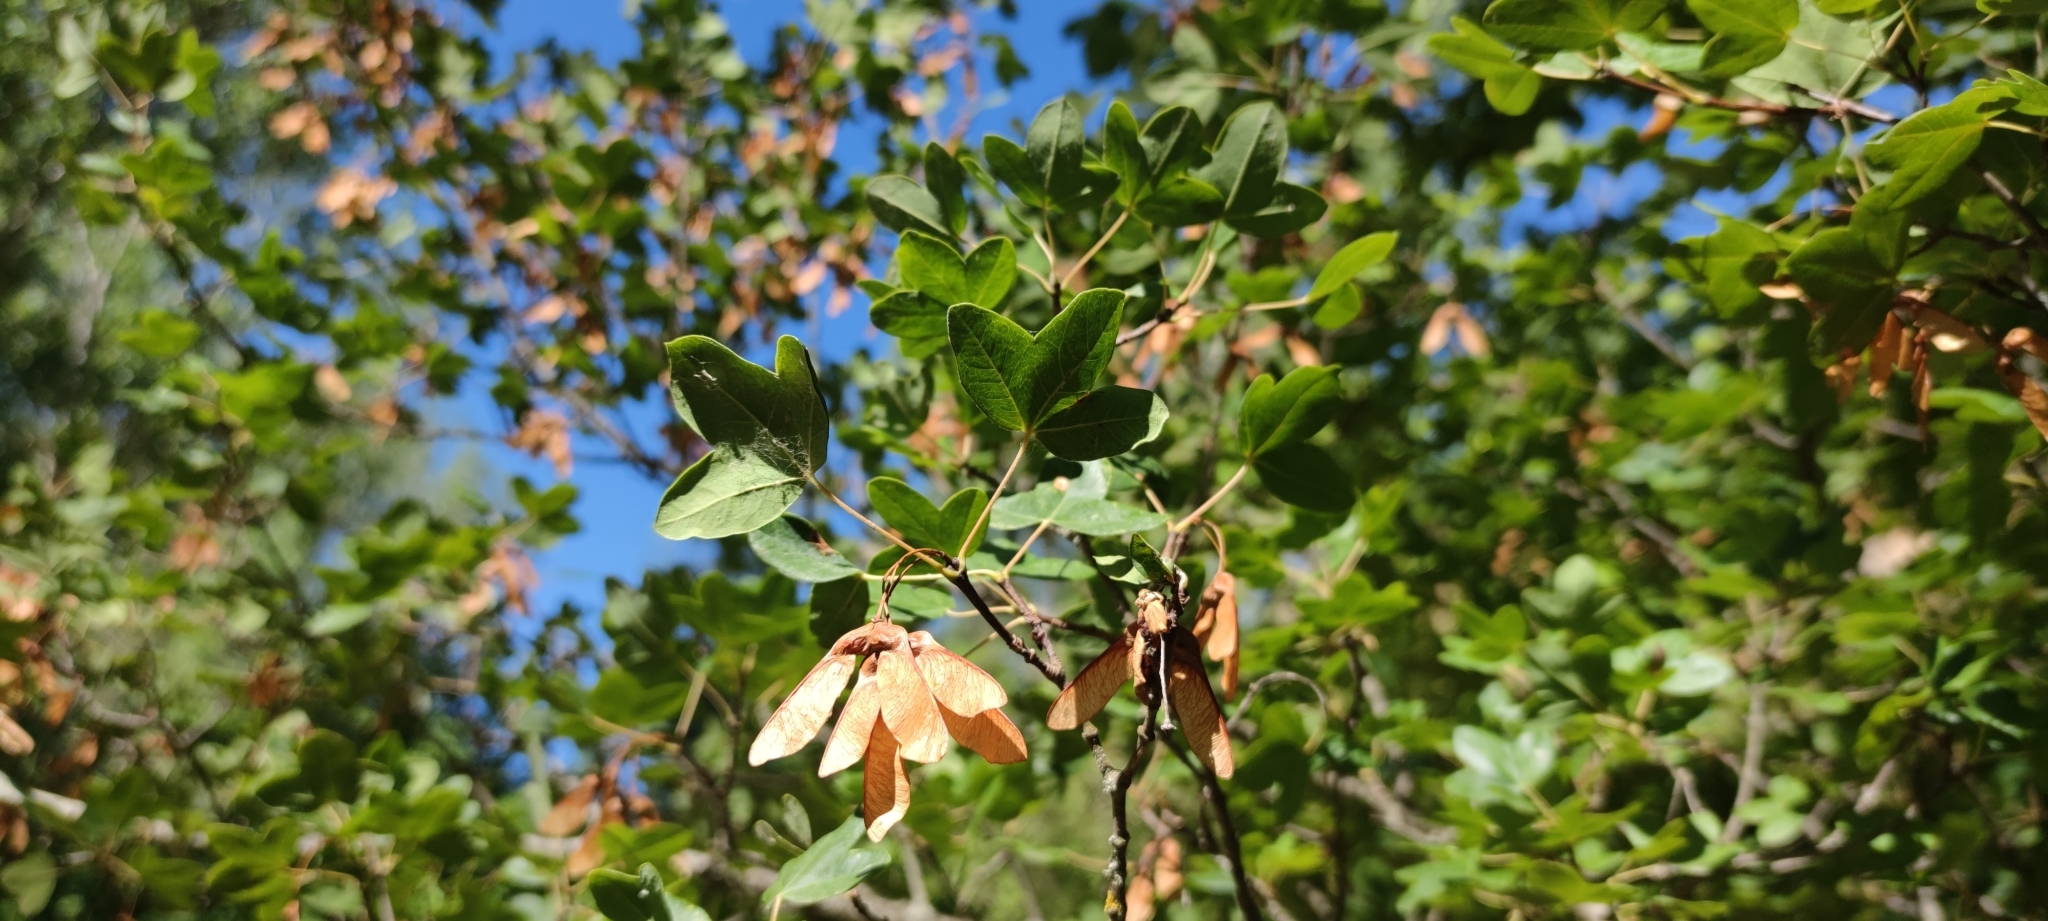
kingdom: Plantae
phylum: Tracheophyta
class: Magnoliopsida
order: Sapindales
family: Sapindaceae
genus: Acer
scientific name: Acer monspessulanum
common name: Montpellier maple
